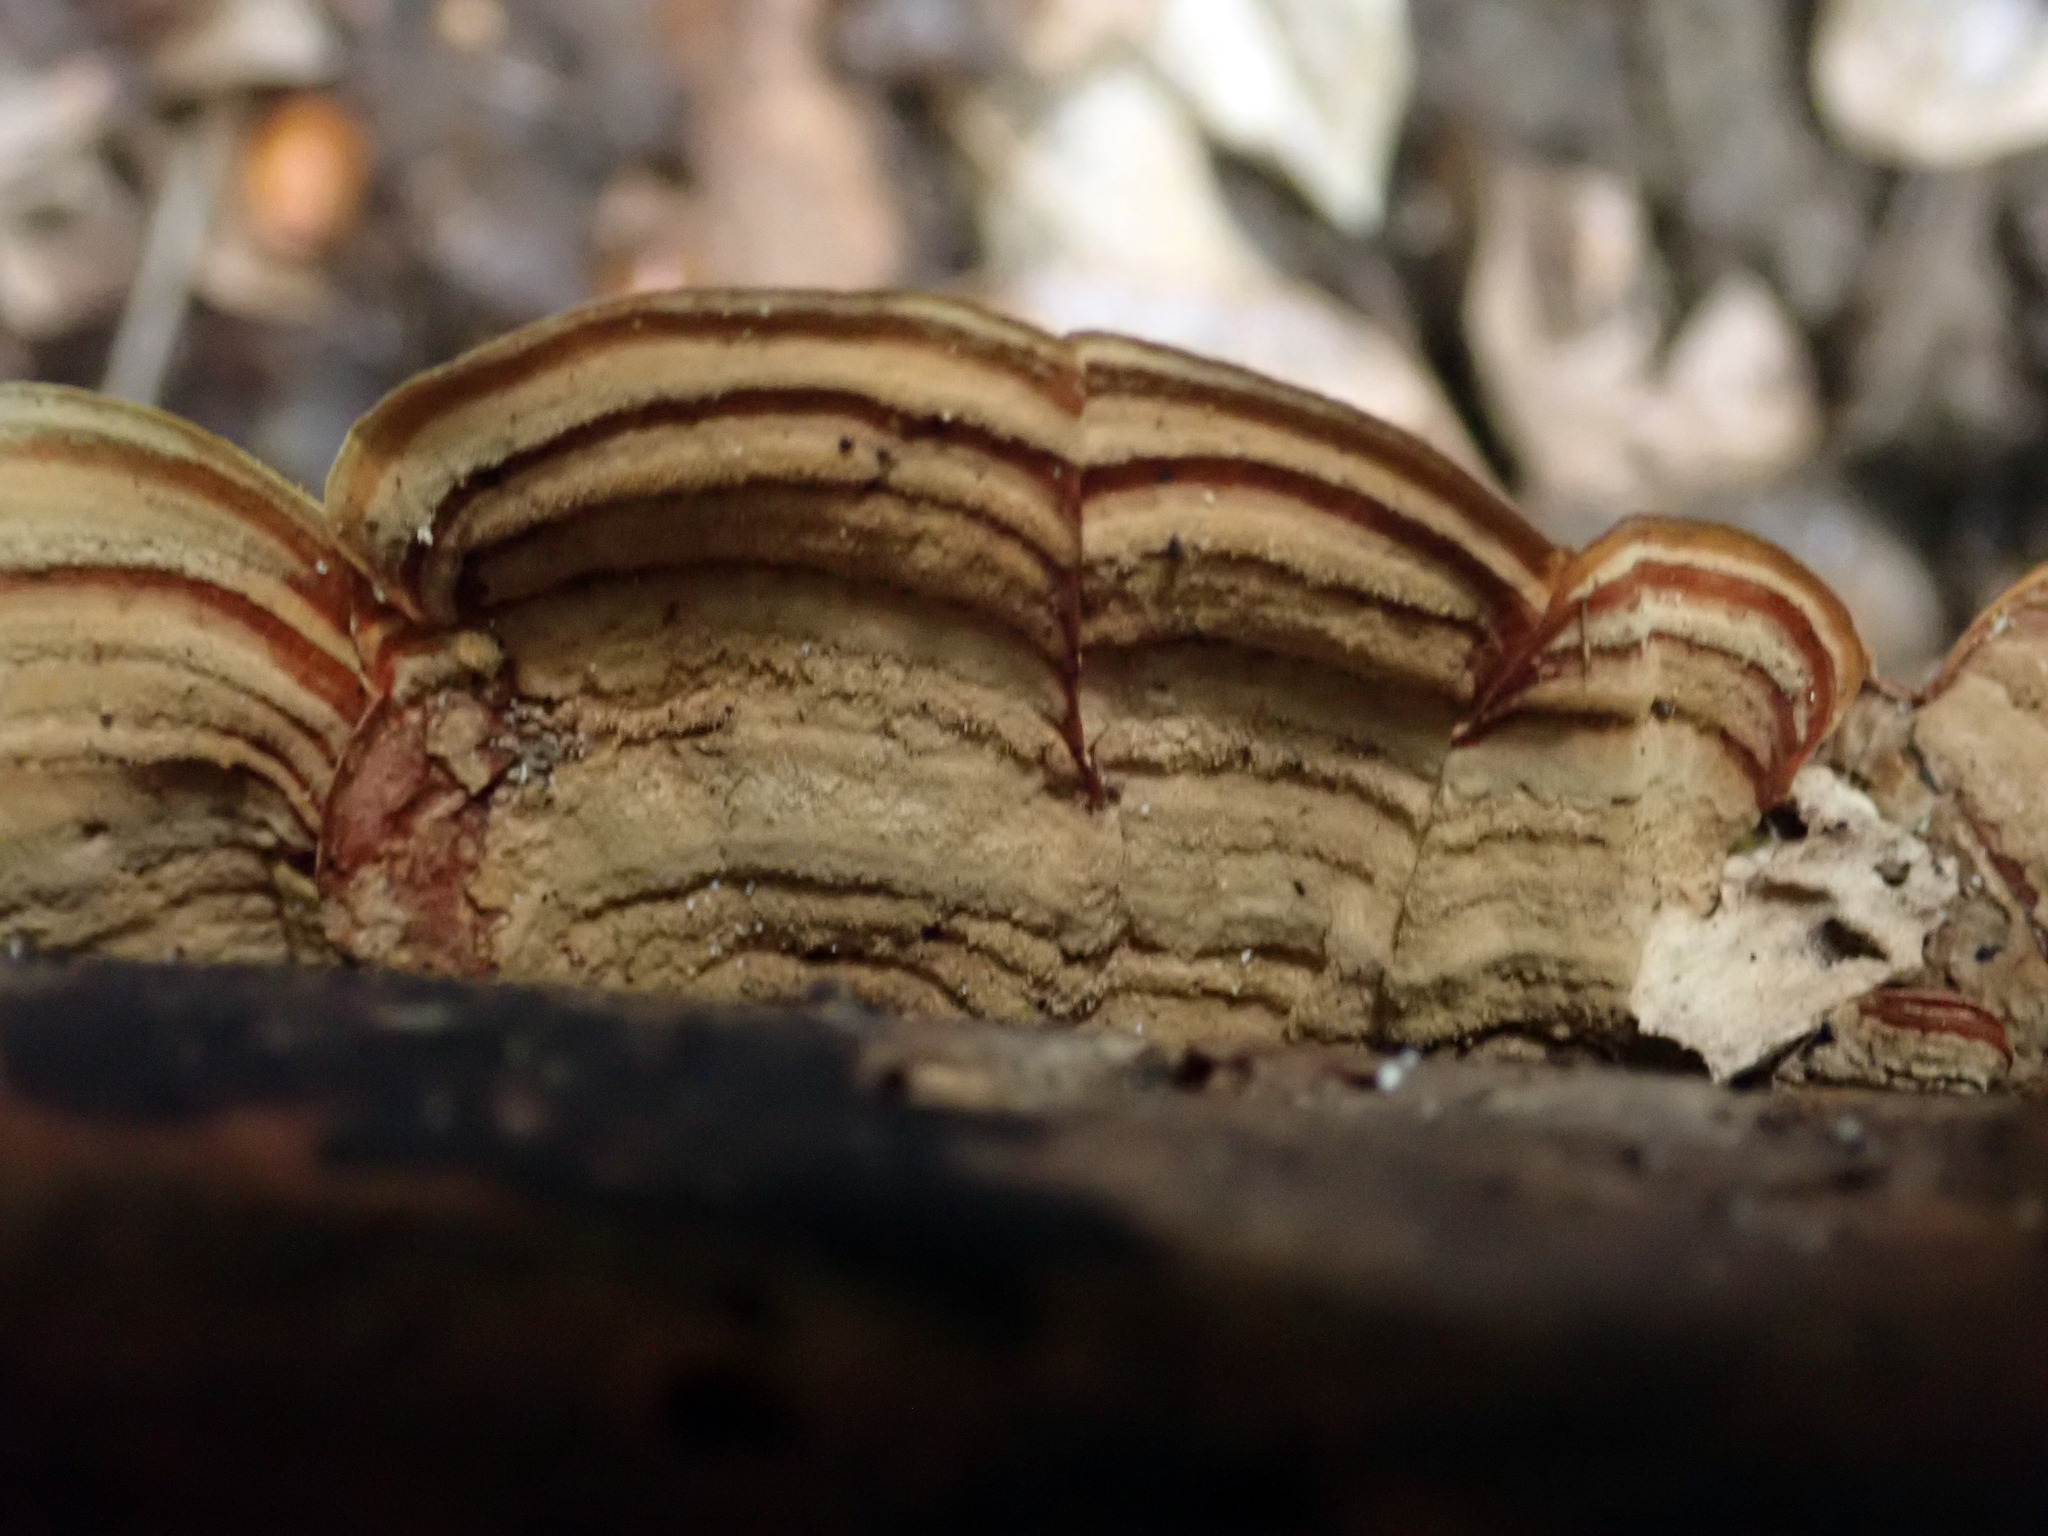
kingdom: Fungi
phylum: Basidiomycota
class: Agaricomycetes
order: Russulales
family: Stereaceae
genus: Stereum
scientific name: Stereum versicolor
